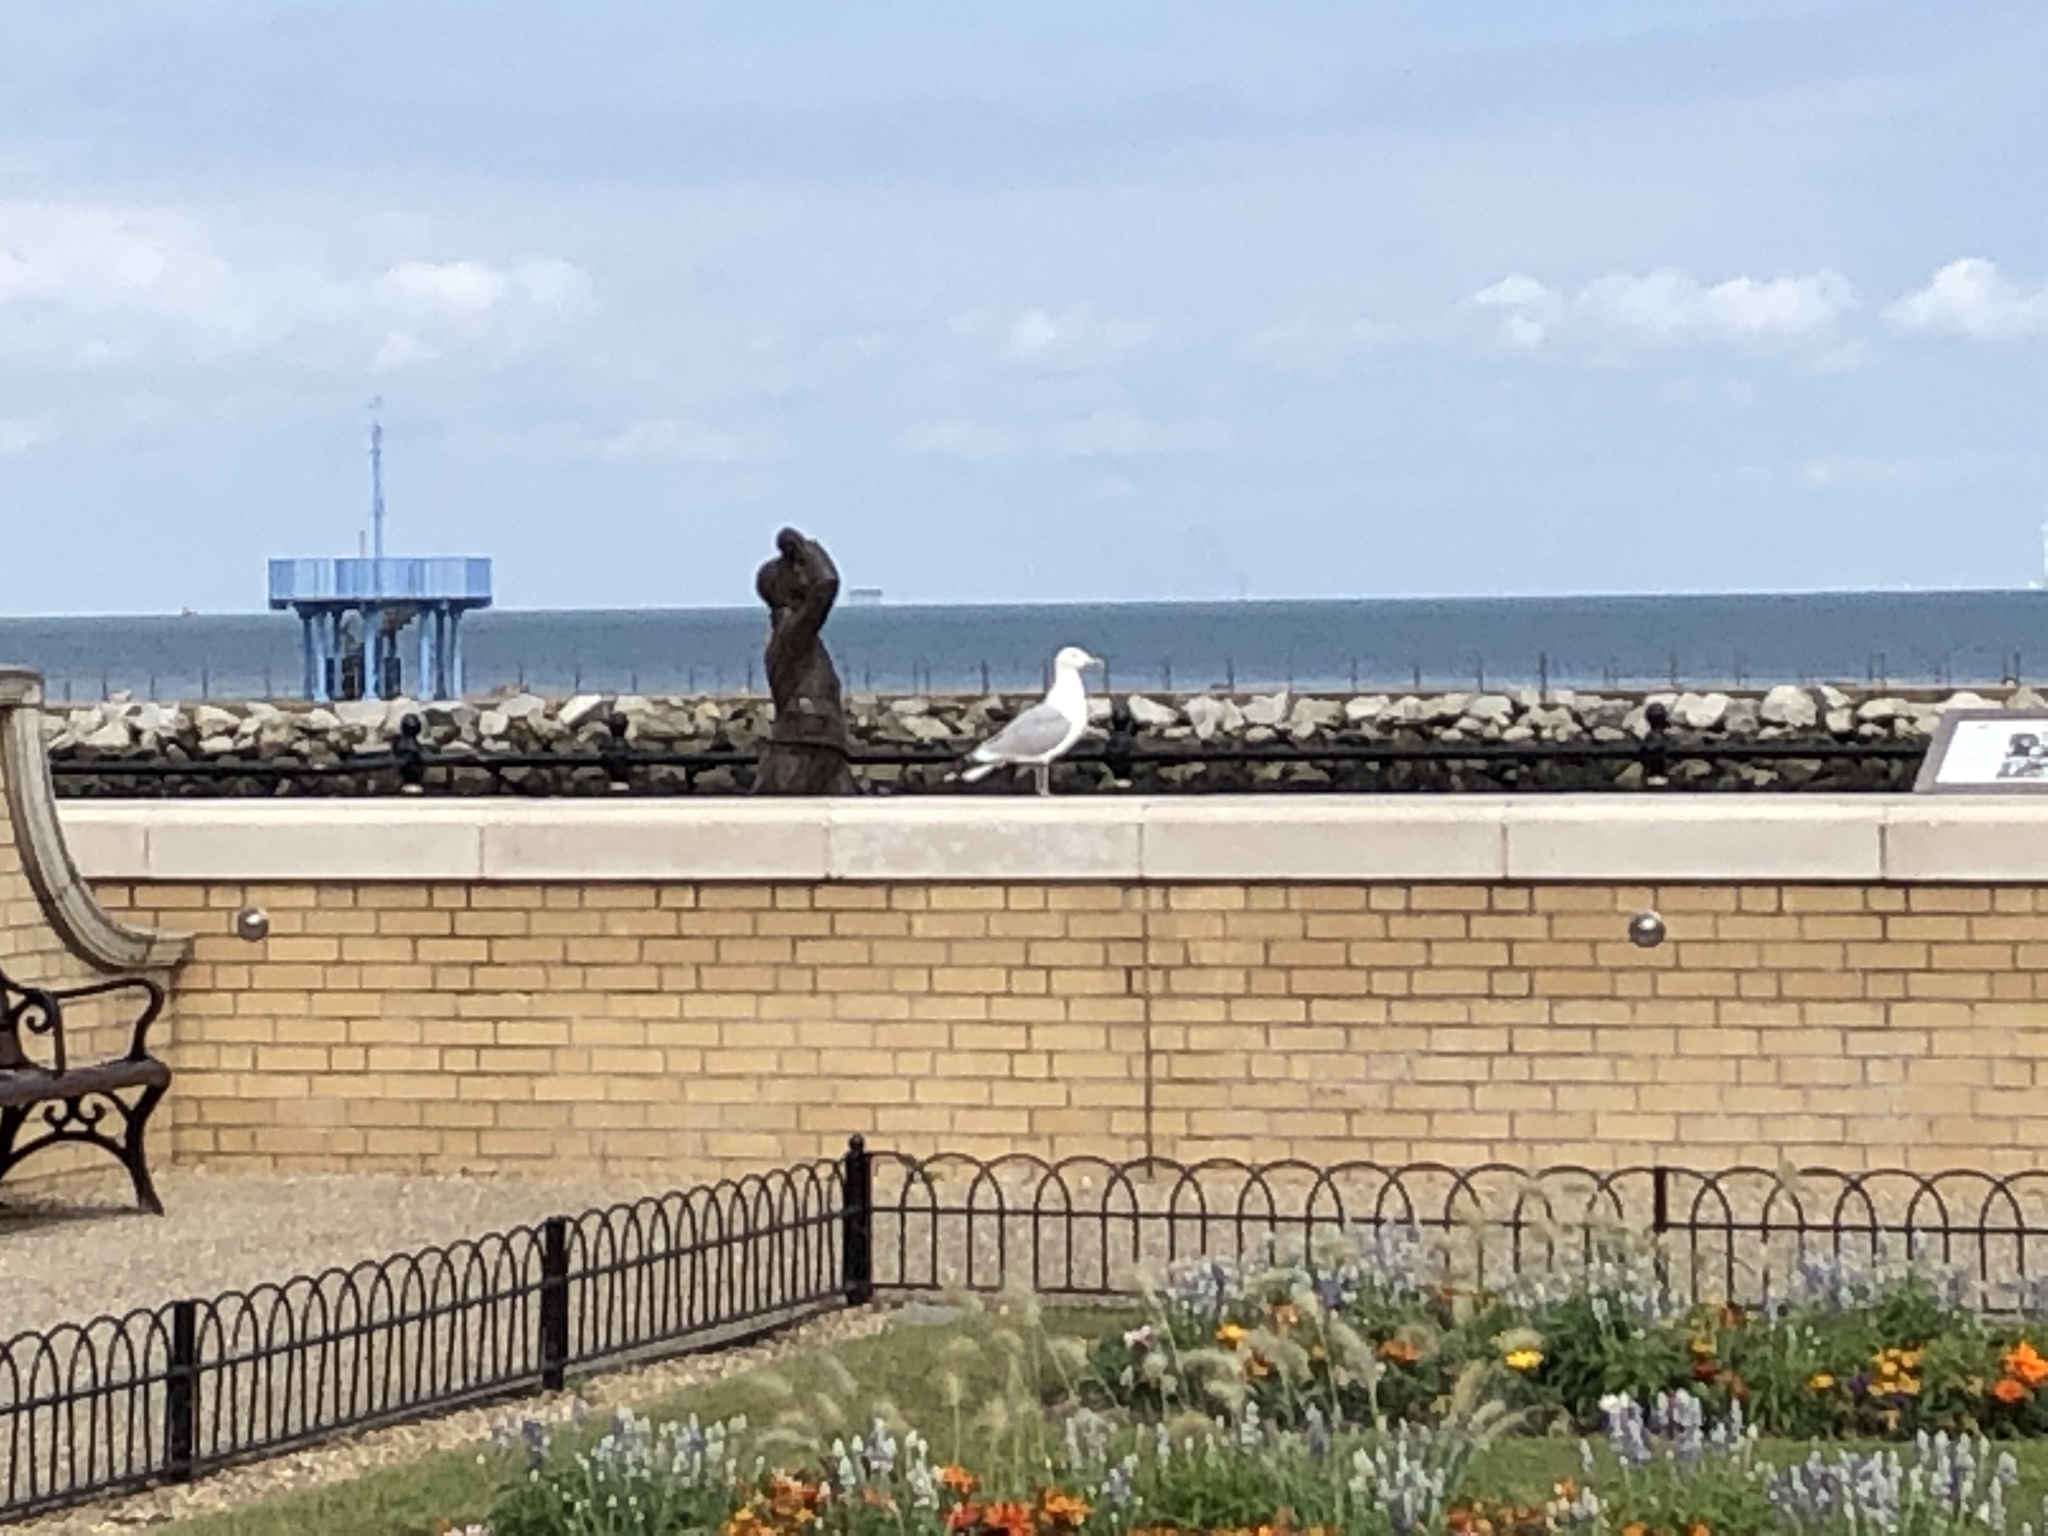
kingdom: Animalia
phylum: Chordata
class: Aves
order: Charadriiformes
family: Laridae
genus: Larus
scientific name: Larus argentatus
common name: Herring gull
